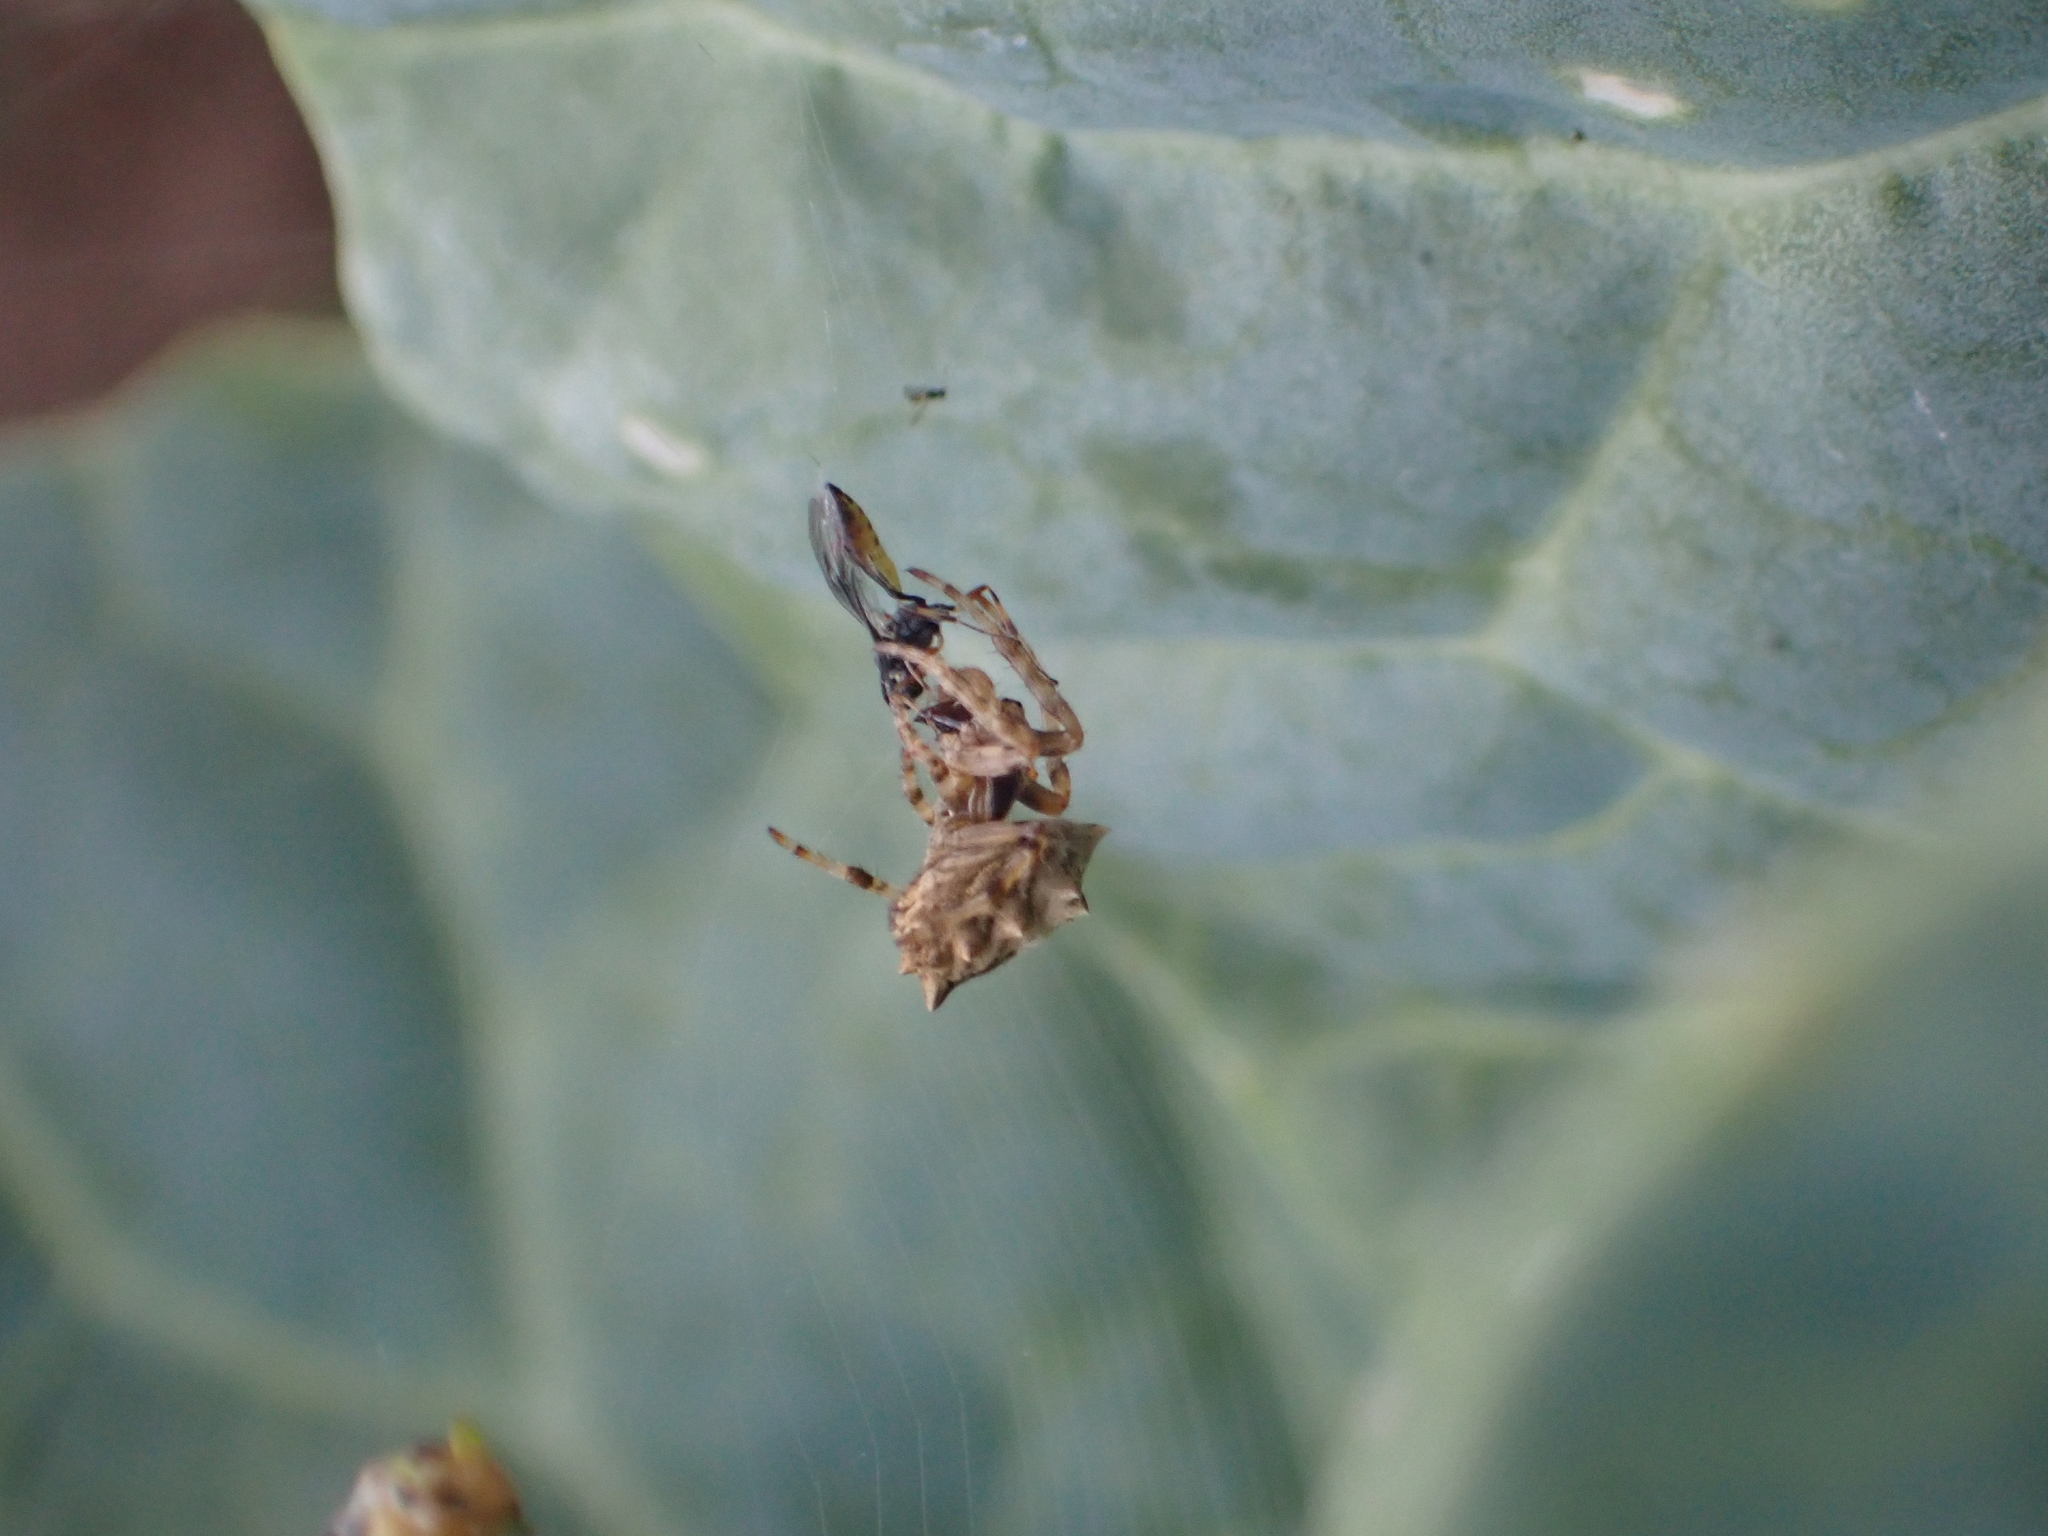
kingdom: Animalia
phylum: Arthropoda
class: Arachnida
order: Araneae
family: Araneidae
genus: Acanthepeira
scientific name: Acanthepeira venusta
